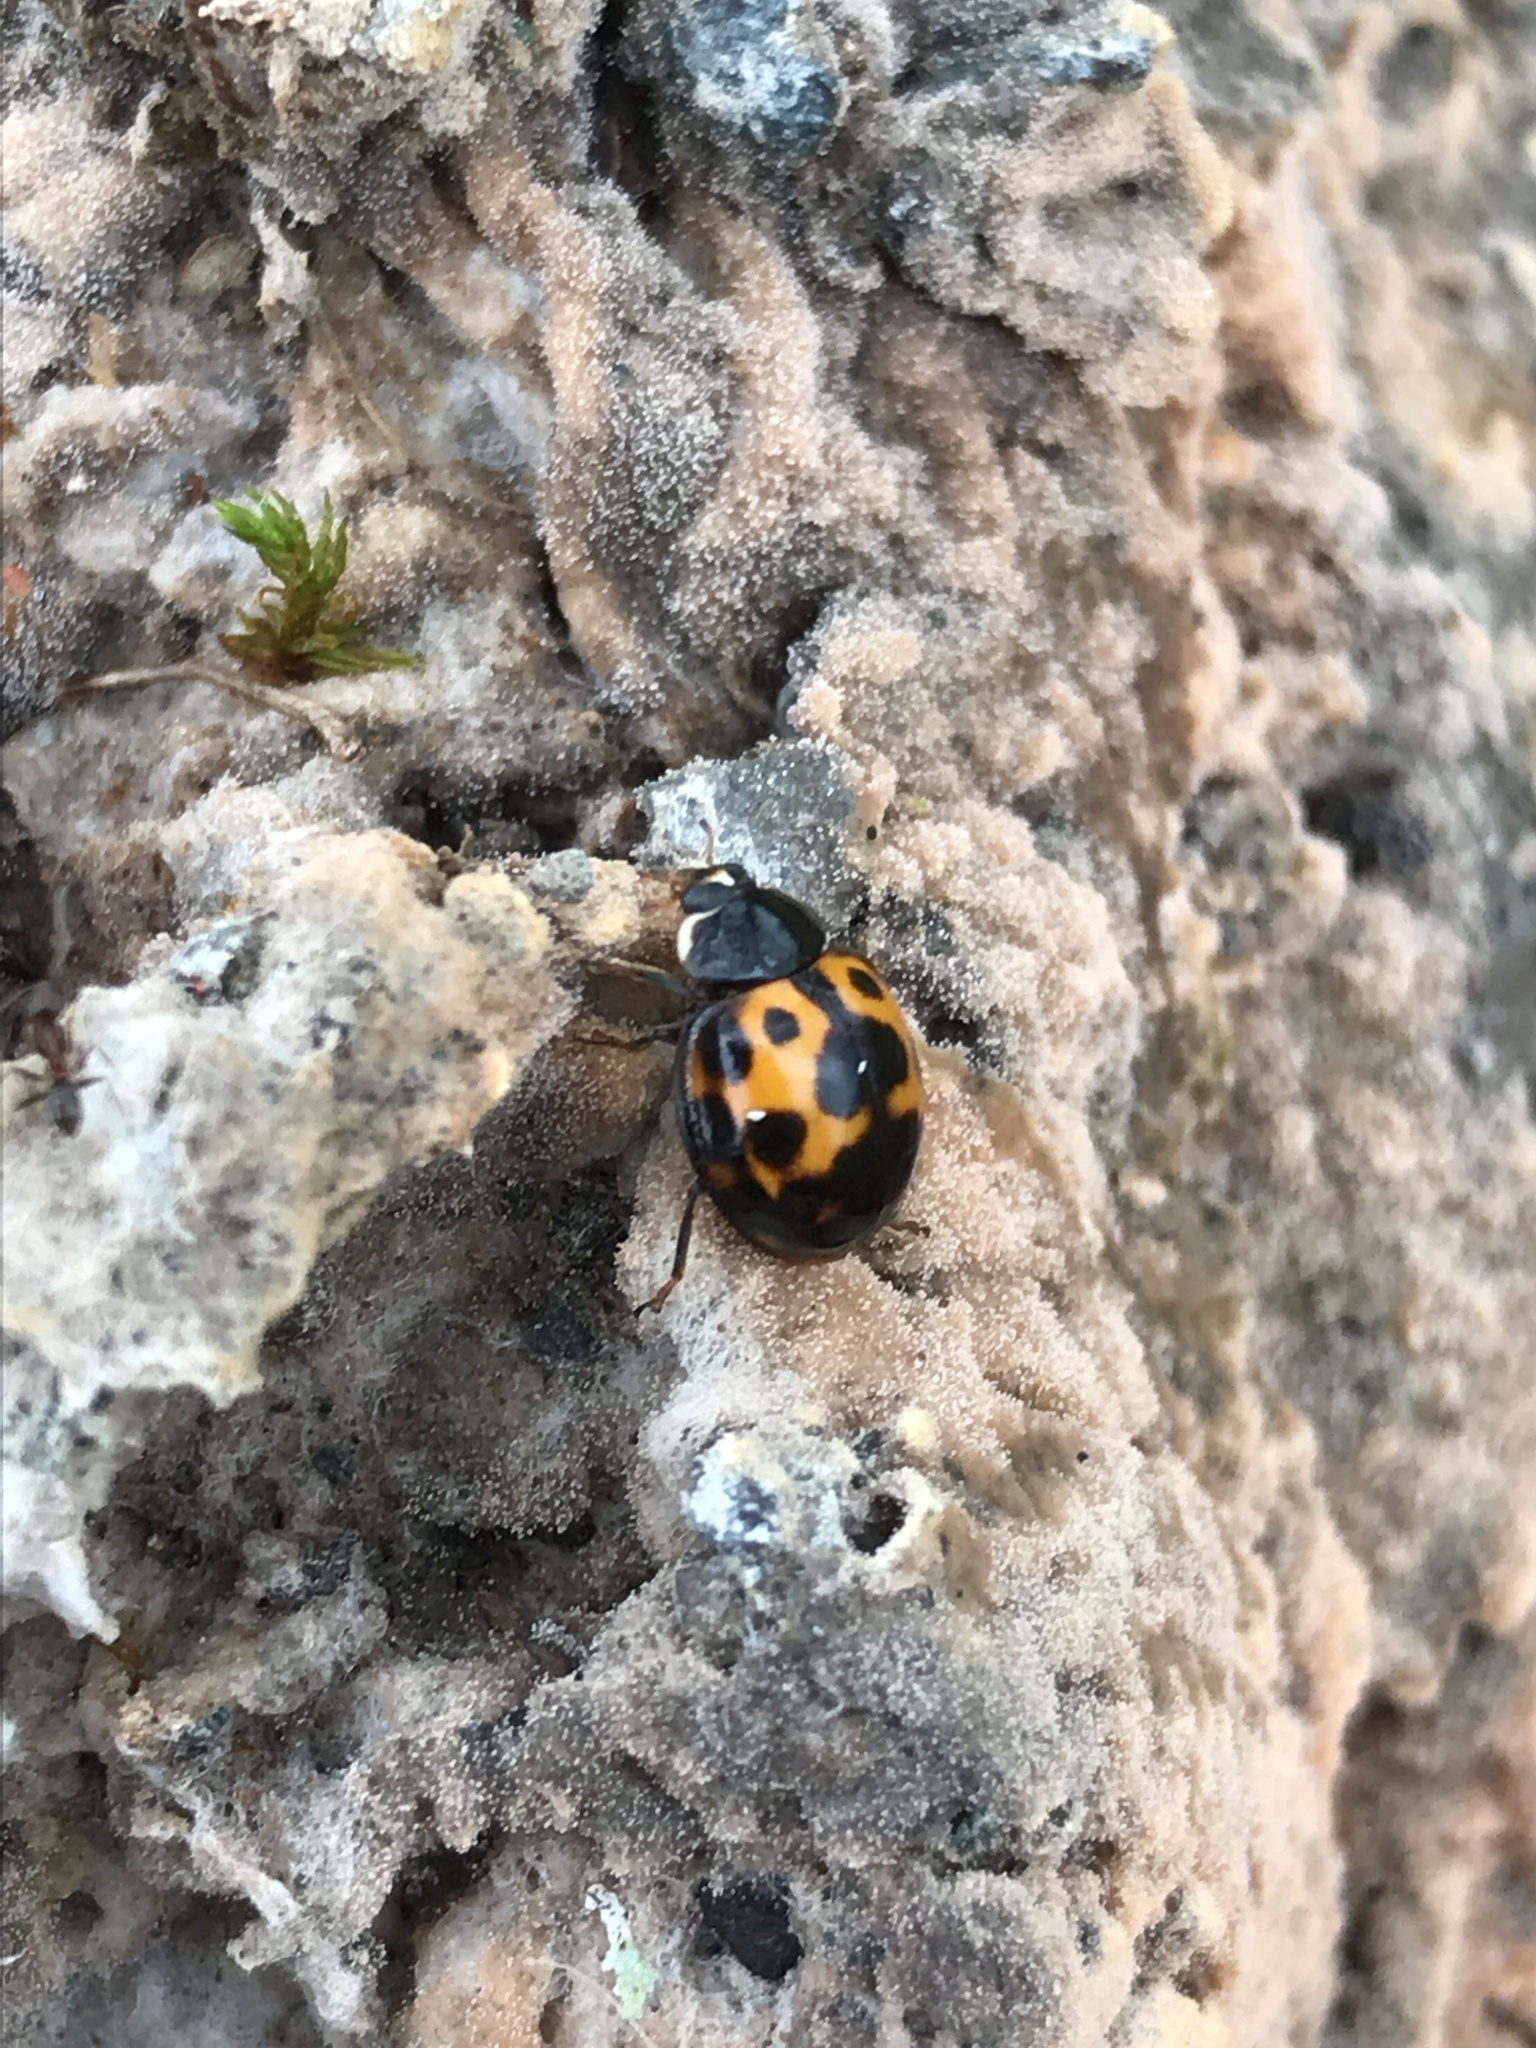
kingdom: Animalia
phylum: Arthropoda
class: Insecta
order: Coleoptera
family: Coccinellidae
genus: Harmonia
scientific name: Harmonia axyridis
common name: Harlequin ladybird
